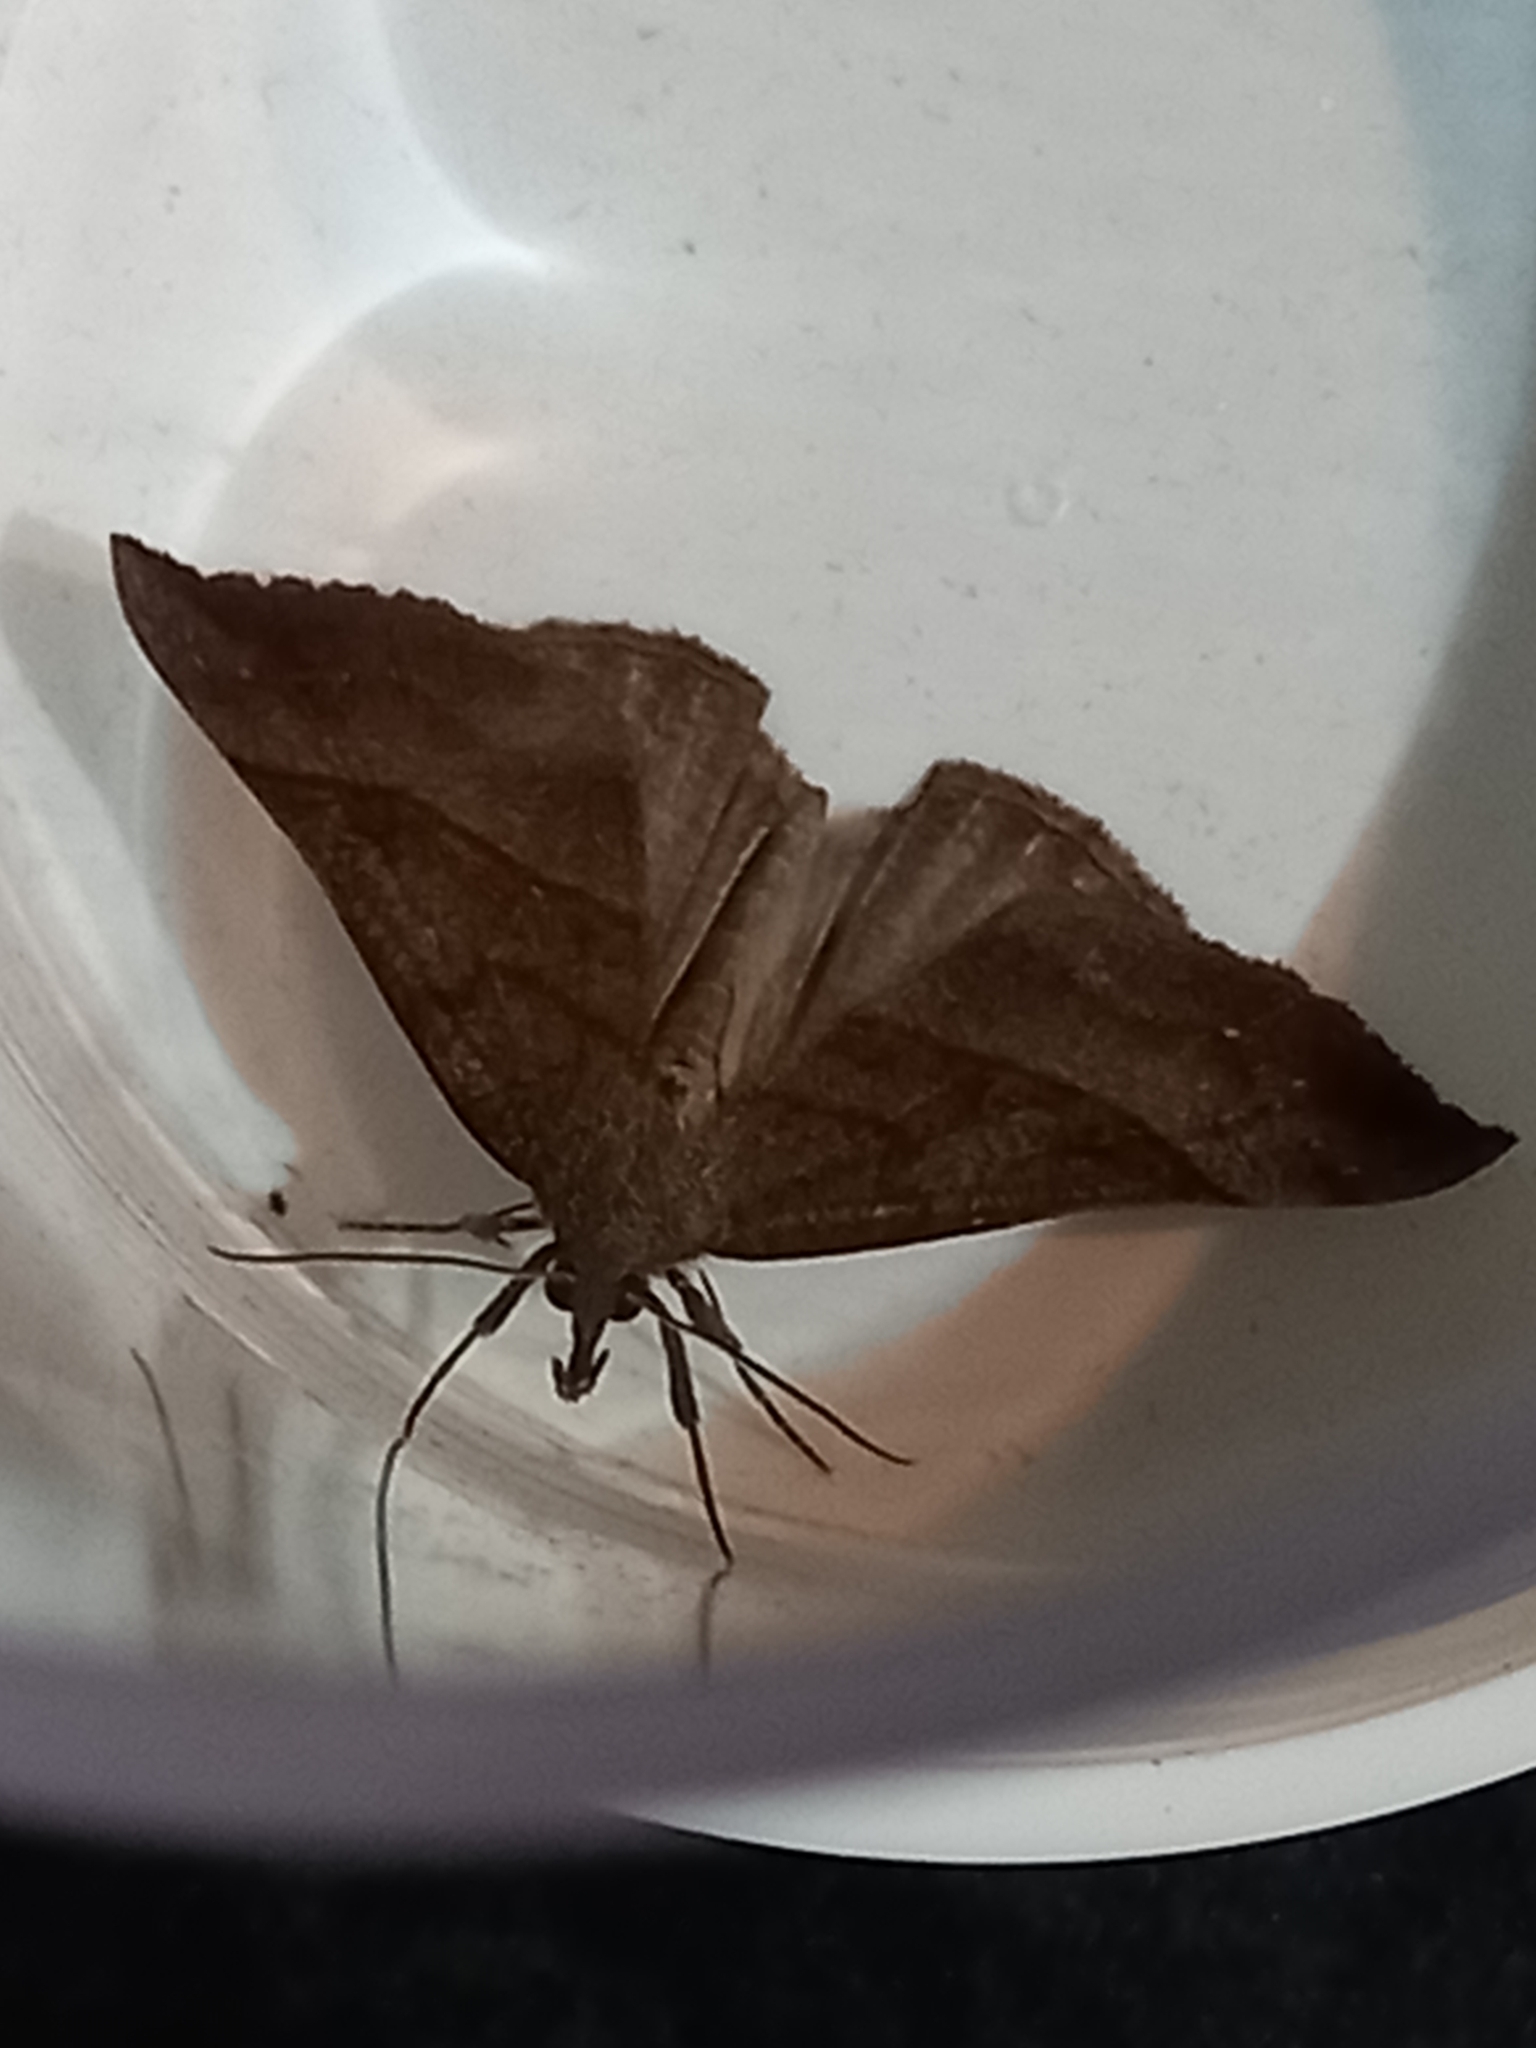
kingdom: Animalia
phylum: Arthropoda
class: Insecta
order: Lepidoptera
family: Erebidae
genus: Hypena
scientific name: Hypena proboscidalis
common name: Snout
